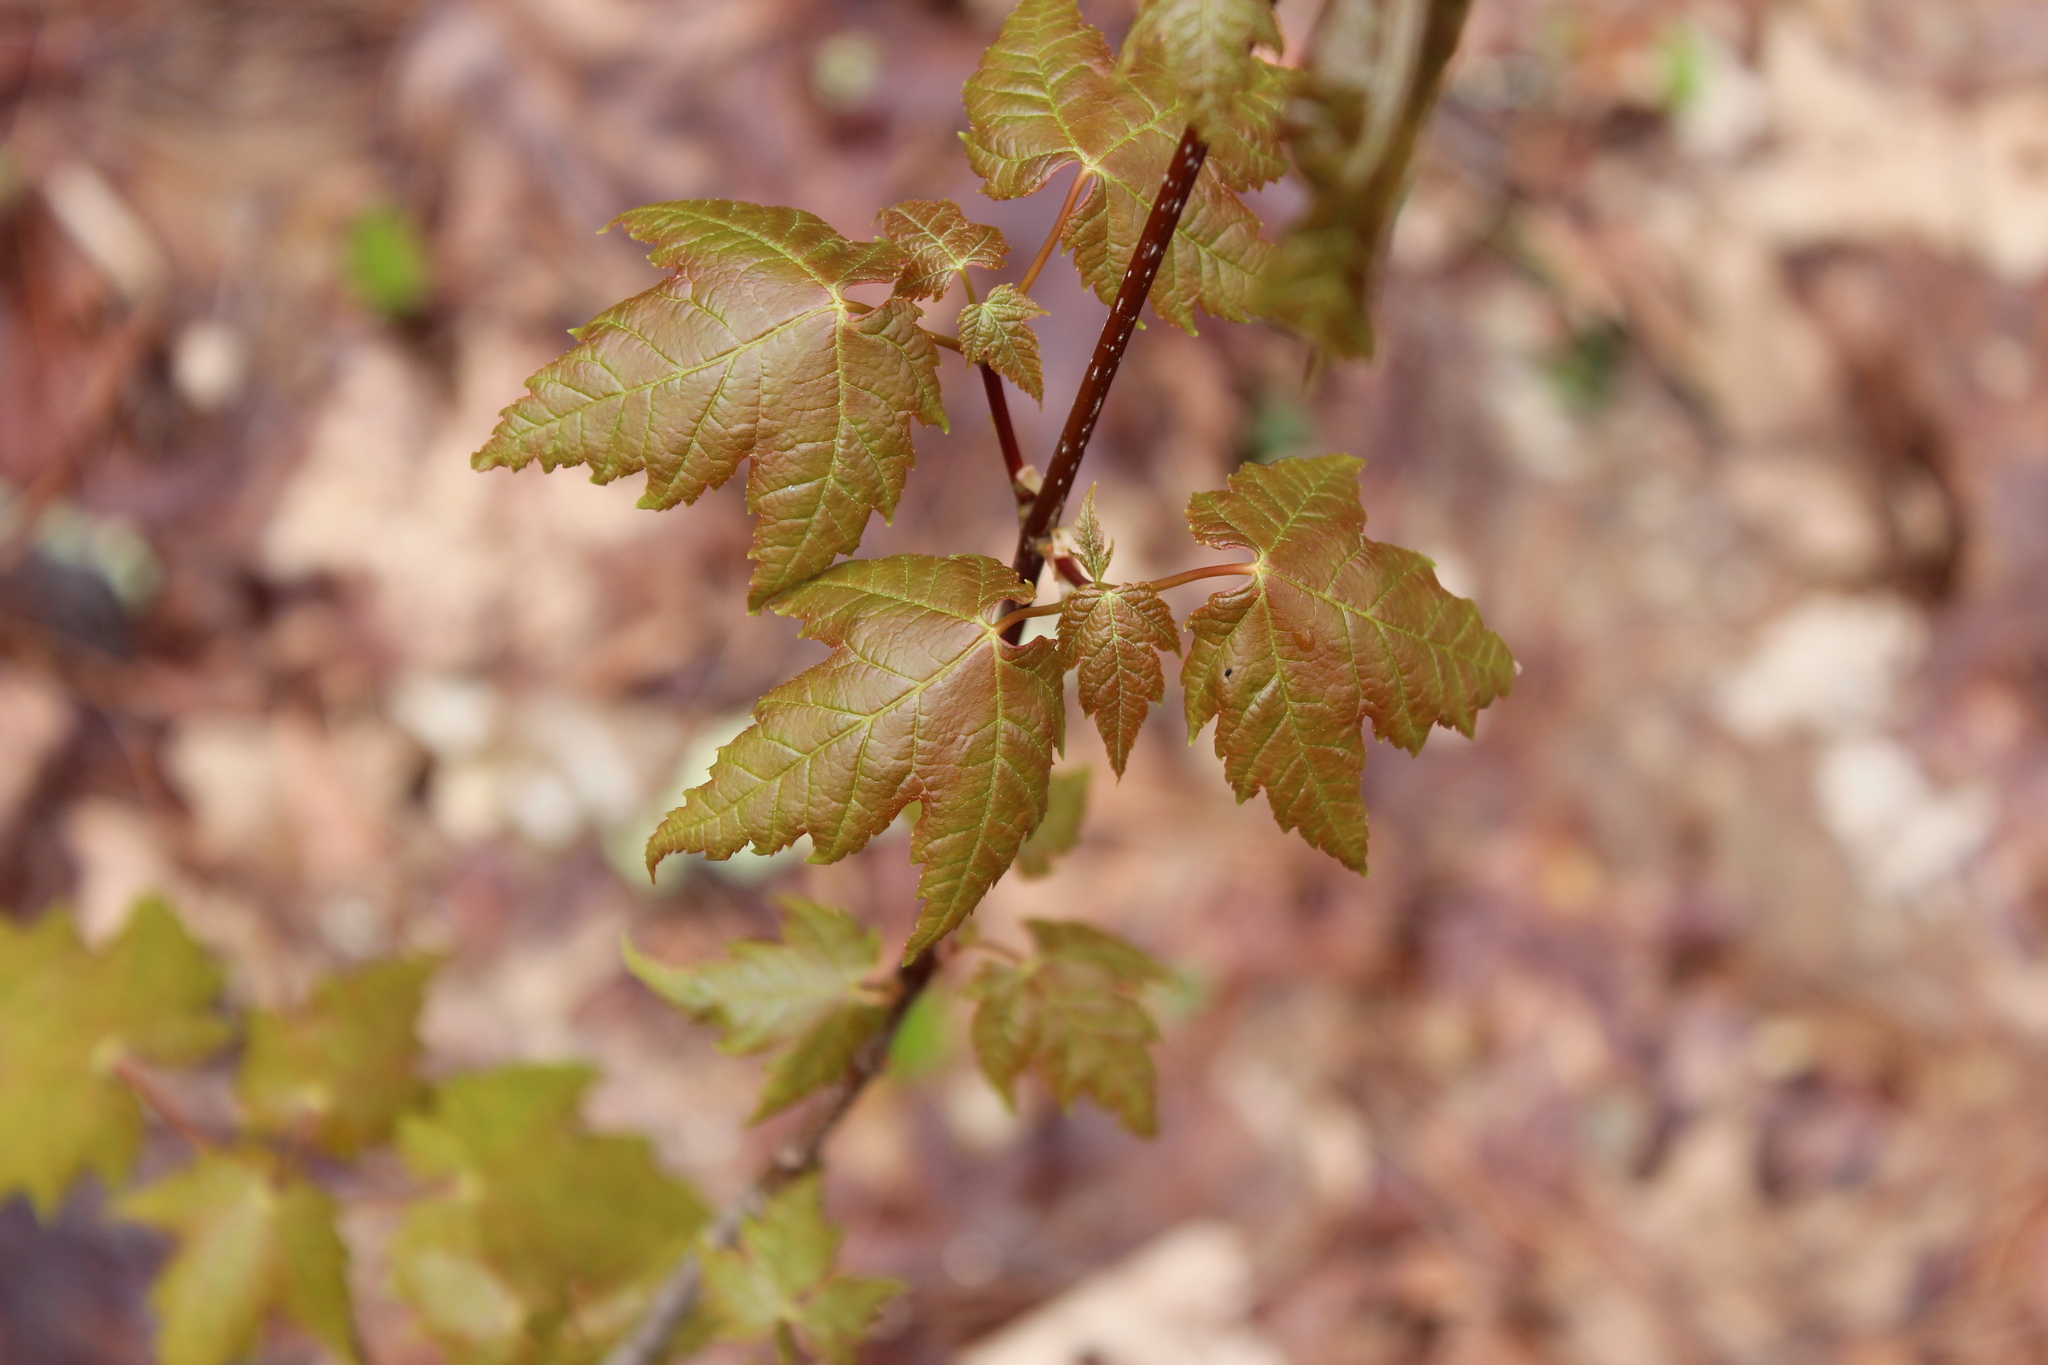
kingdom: Plantae
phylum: Tracheophyta
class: Magnoliopsida
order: Sapindales
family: Sapindaceae
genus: Acer
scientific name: Acer rubrum
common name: Red maple
